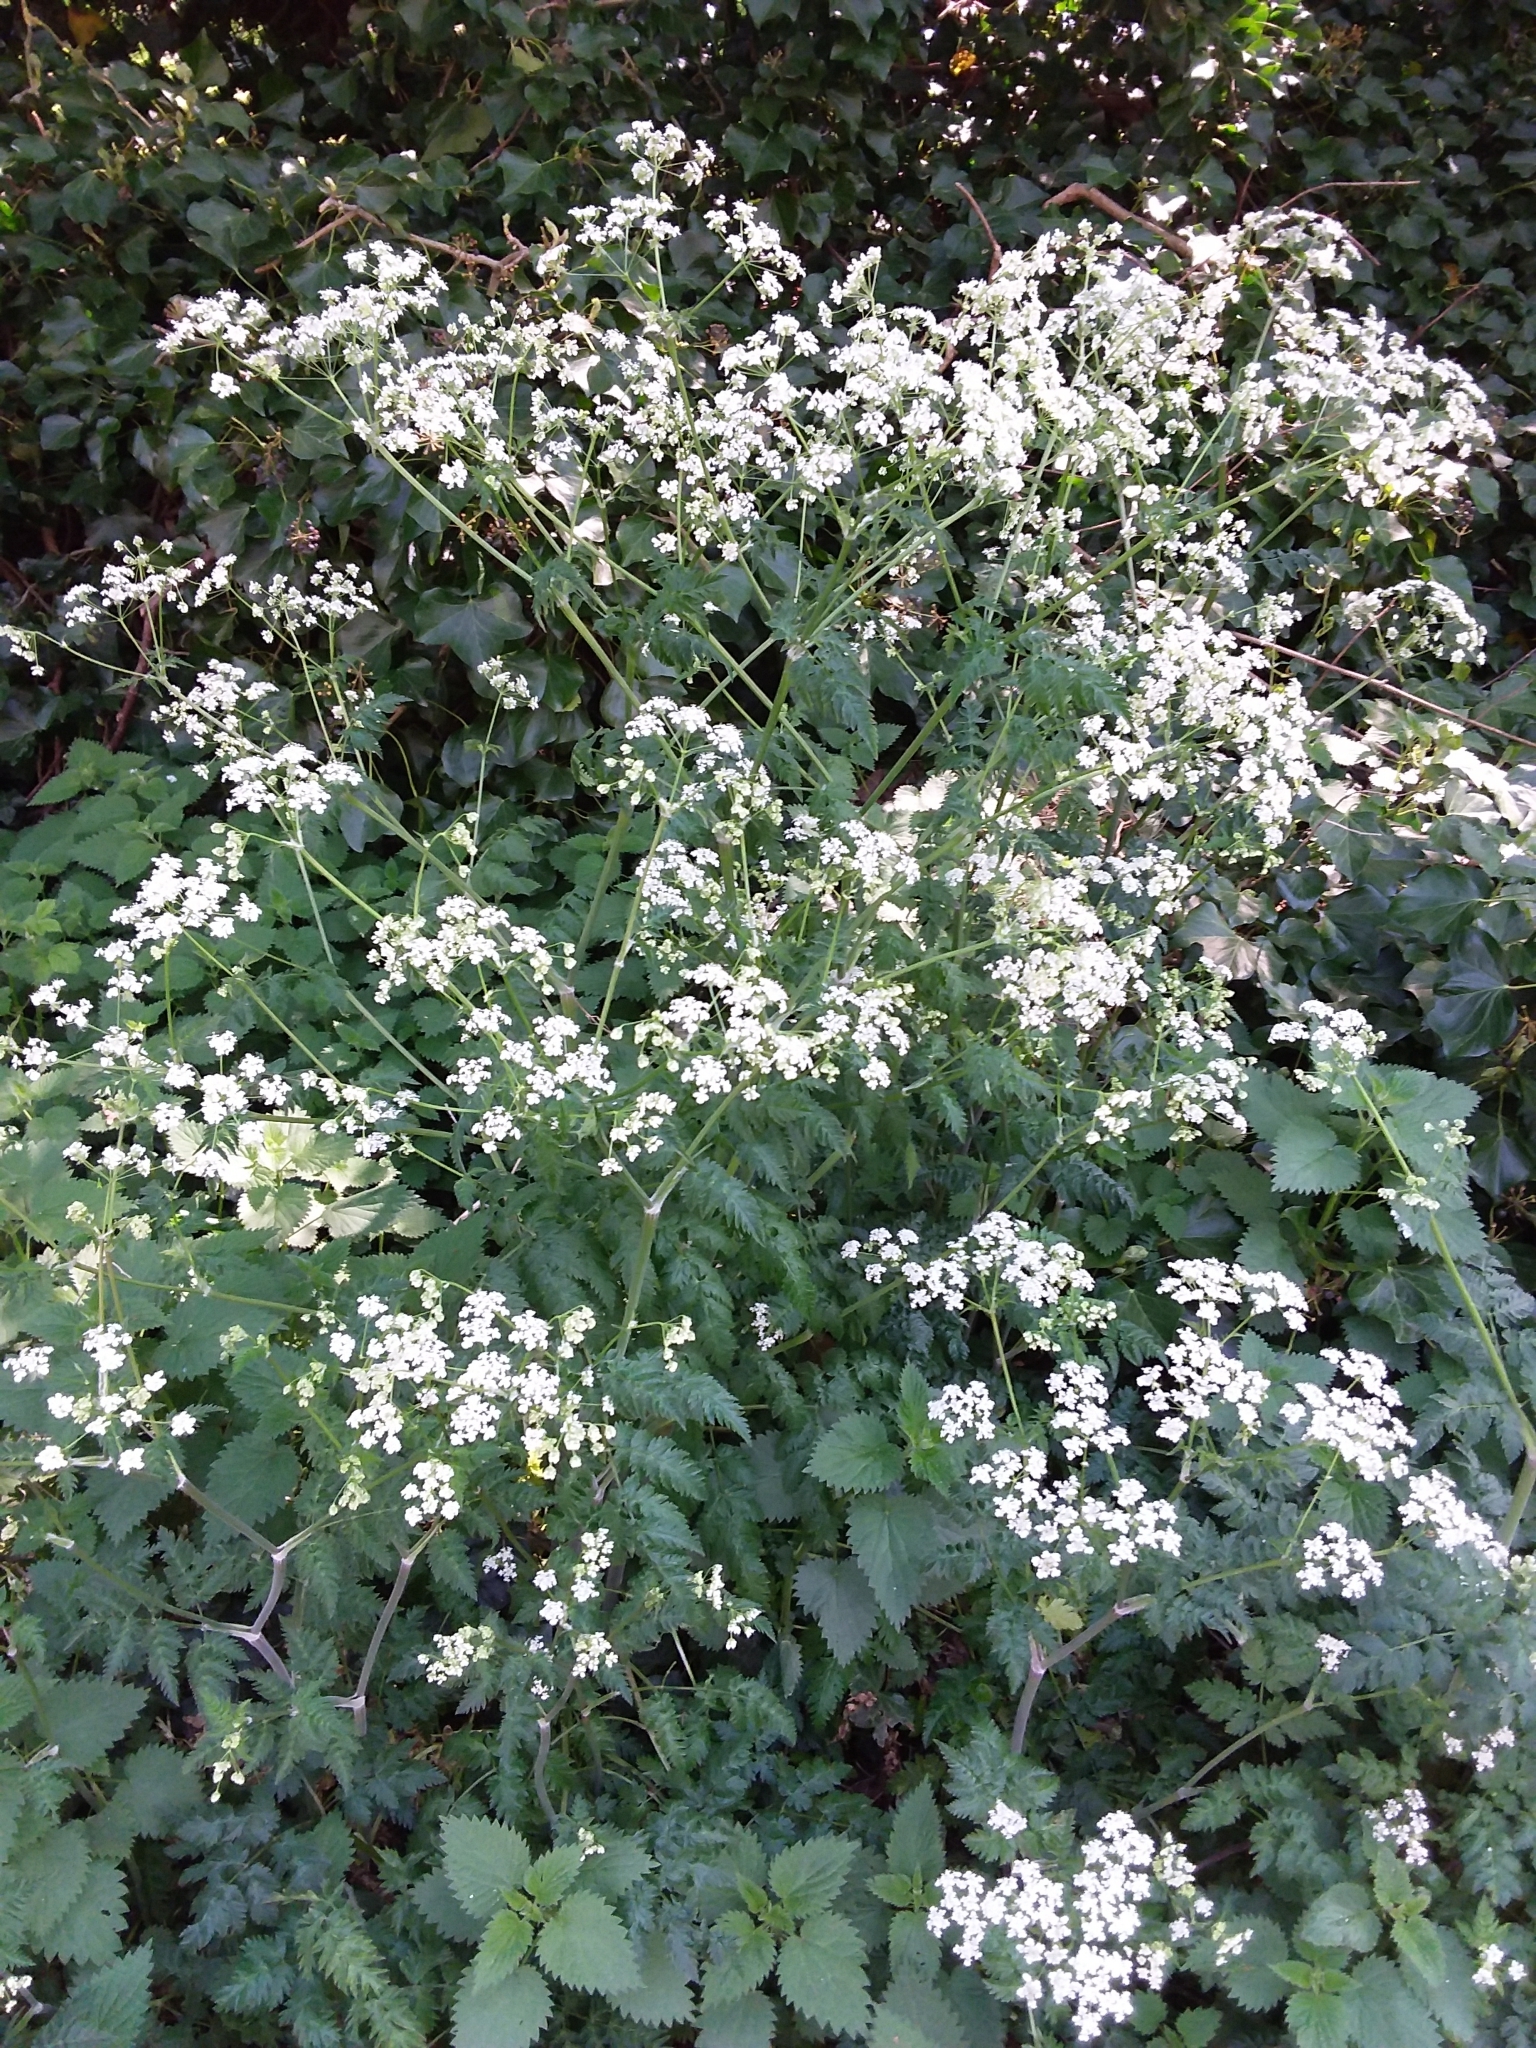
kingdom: Plantae
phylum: Tracheophyta
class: Magnoliopsida
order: Apiales
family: Apiaceae
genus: Anthriscus
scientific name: Anthriscus sylvestris
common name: Cow parsley
